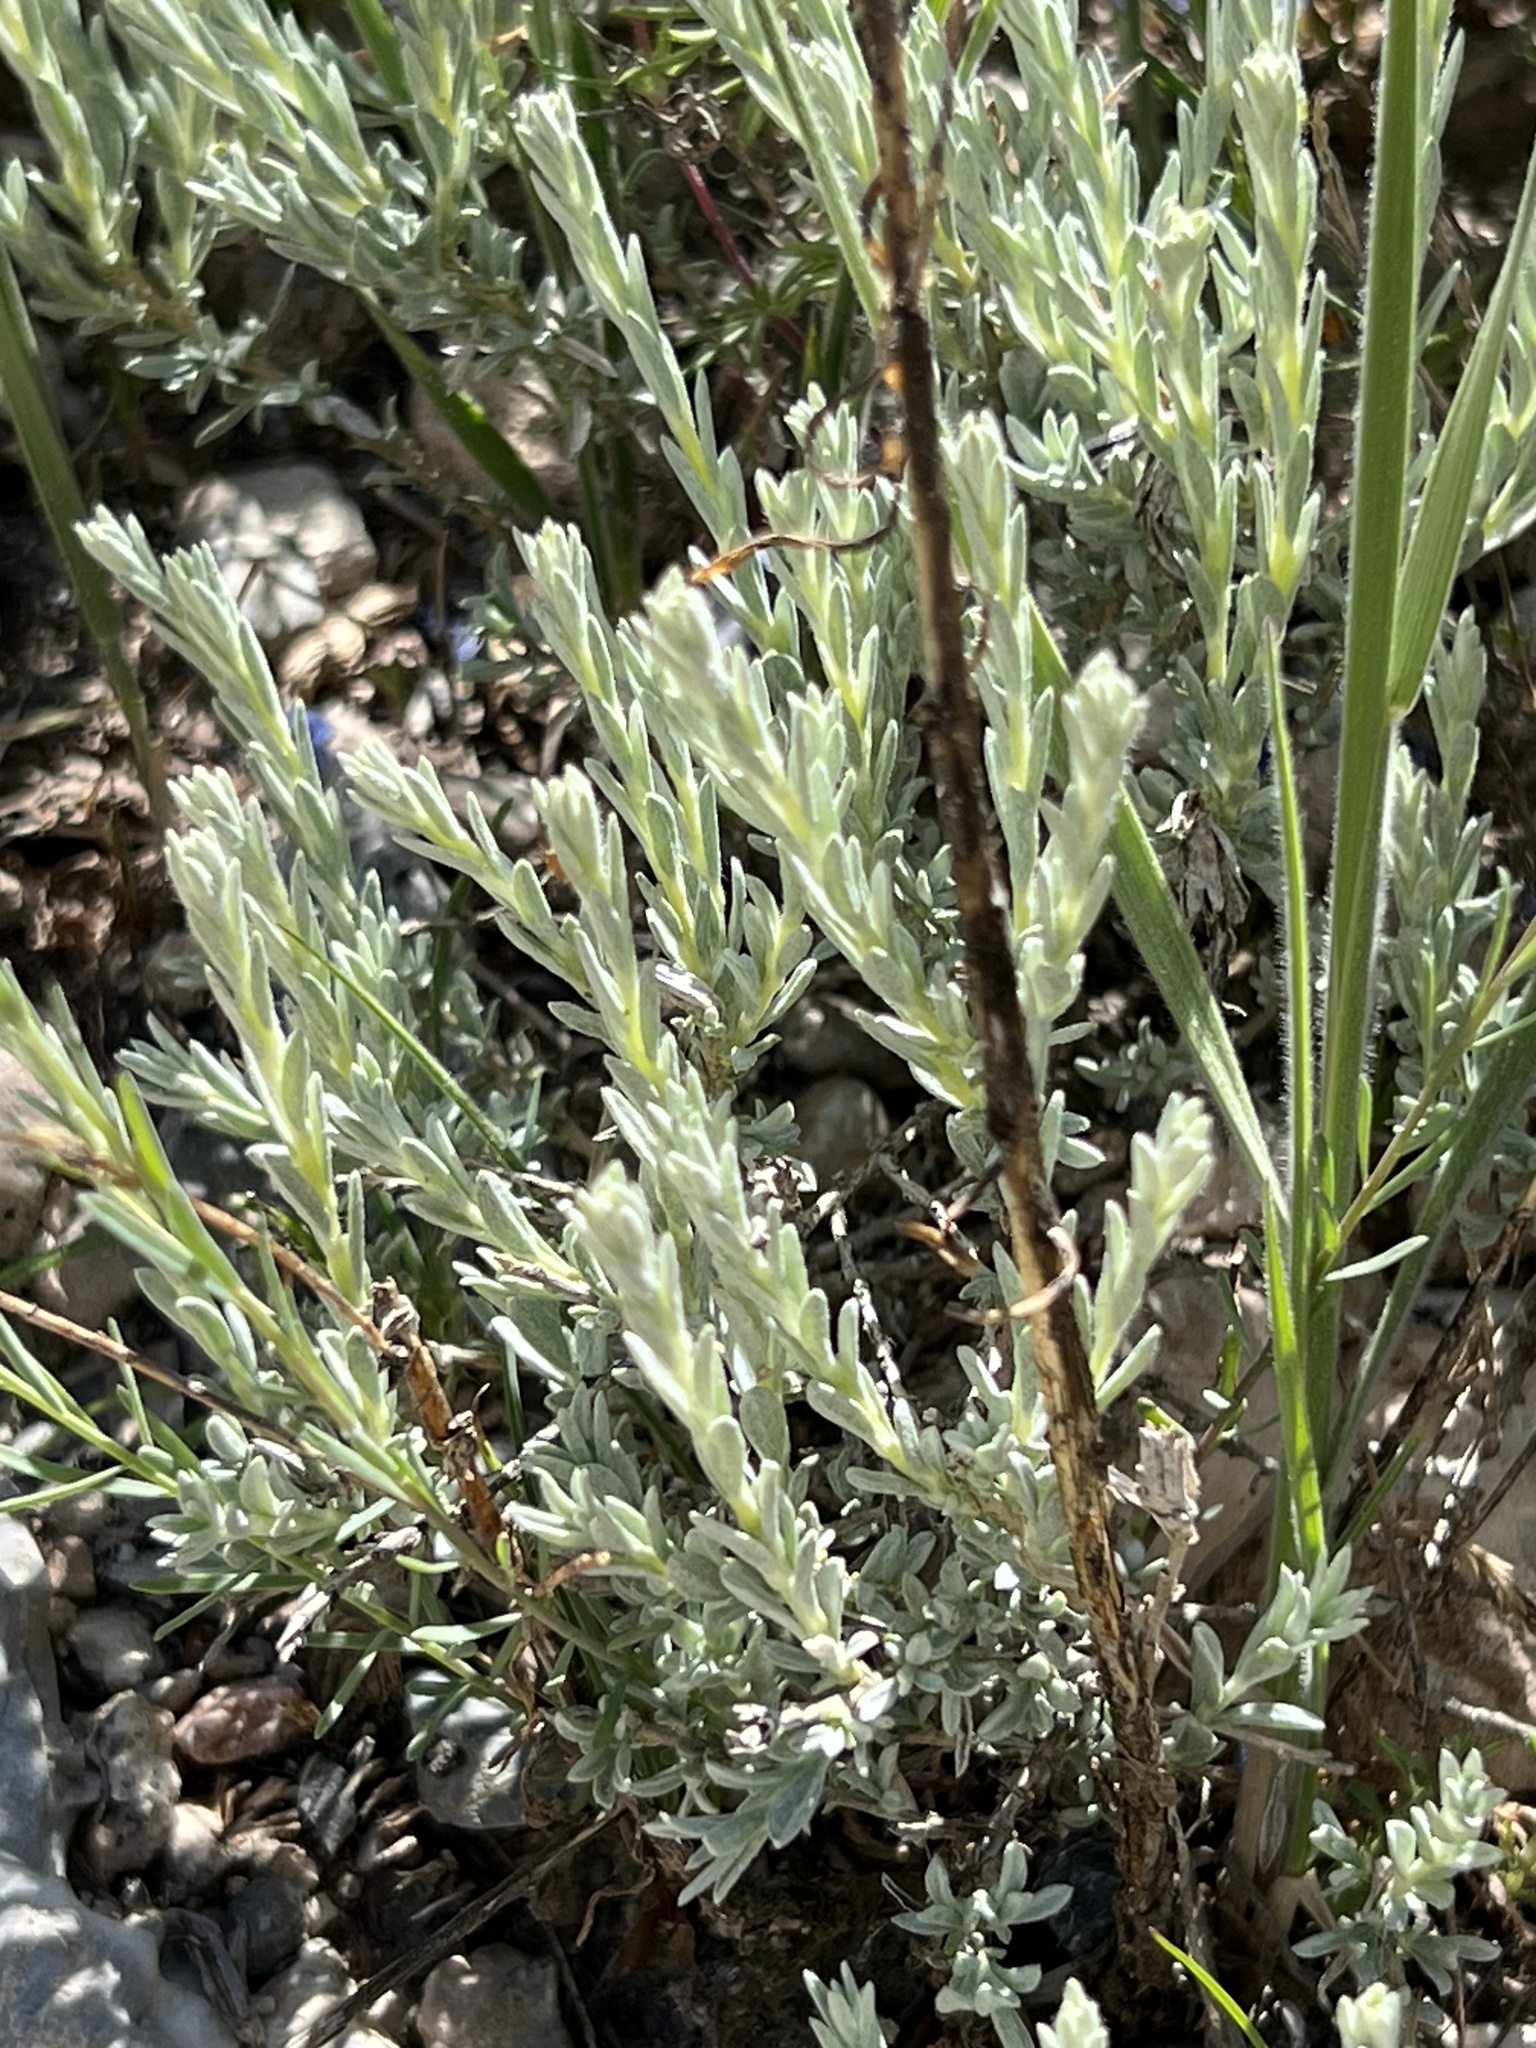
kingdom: Plantae
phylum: Tracheophyta
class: Magnoliopsida
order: Asterales
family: Asteraceae
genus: Tetradymia
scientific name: Tetradymia canescens
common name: Spineless horsebrush
